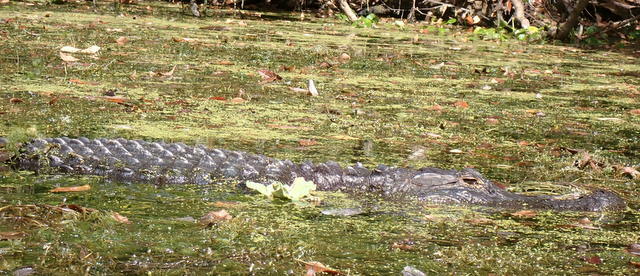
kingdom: Animalia
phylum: Chordata
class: Crocodylia
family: Alligatoridae
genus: Alligator
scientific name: Alligator mississippiensis
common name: American alligator
